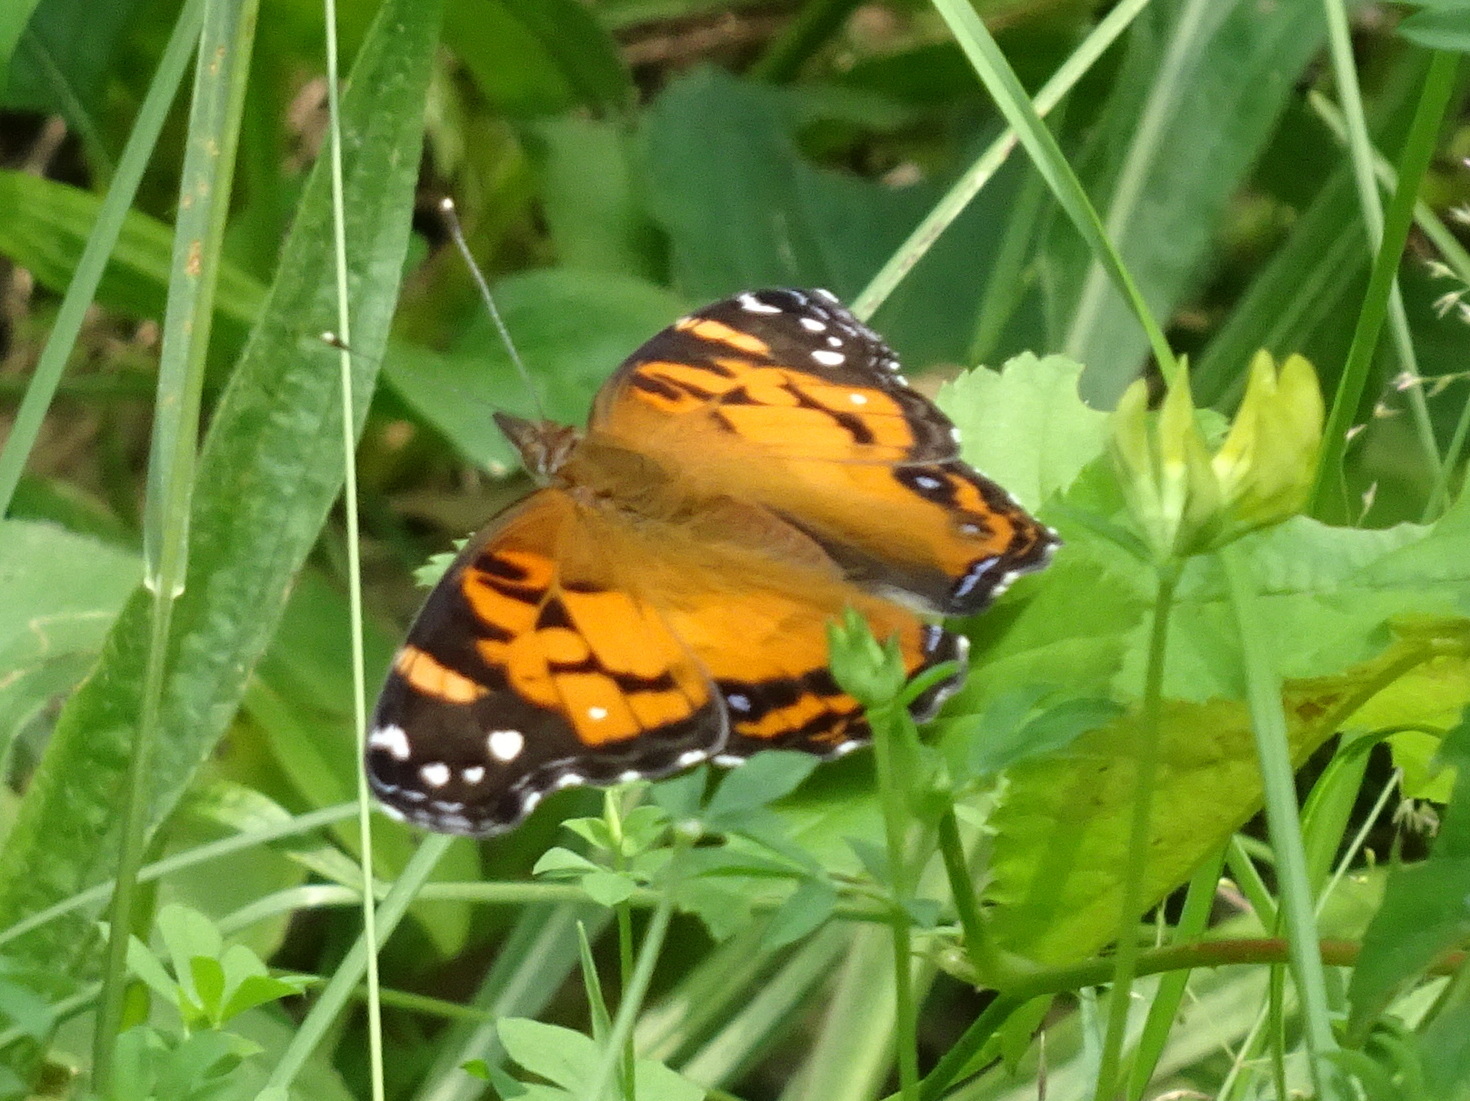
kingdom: Animalia
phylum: Arthropoda
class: Insecta
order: Lepidoptera
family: Nymphalidae
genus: Vanessa
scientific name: Vanessa virginiensis
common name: American lady
